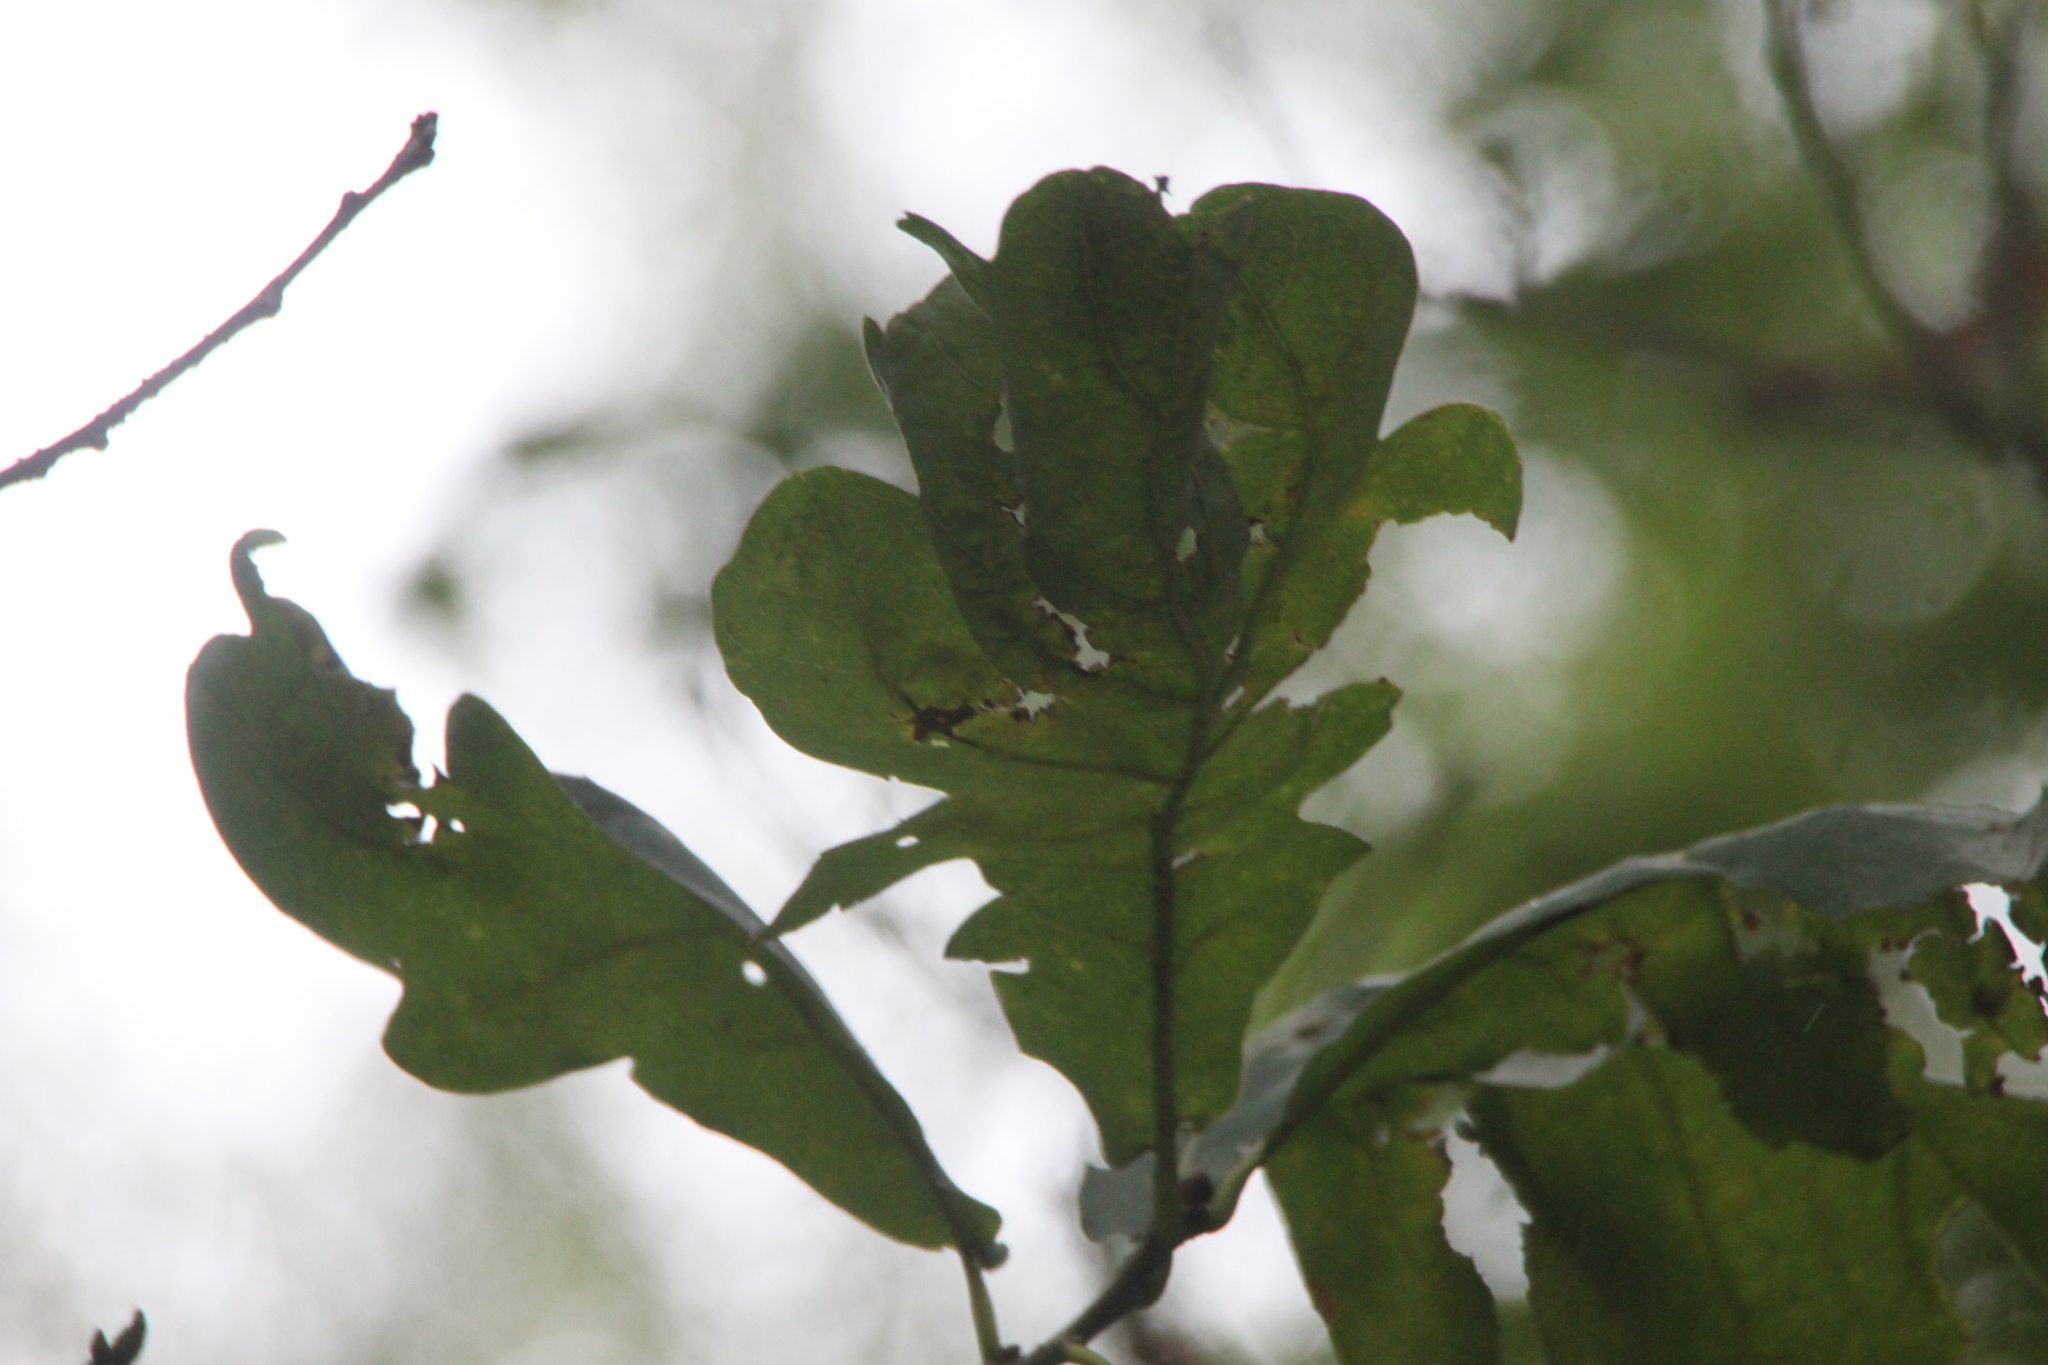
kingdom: Plantae
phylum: Tracheophyta
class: Magnoliopsida
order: Fagales
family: Fagaceae
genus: Quercus
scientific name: Quercus robur
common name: Pedunculate oak
